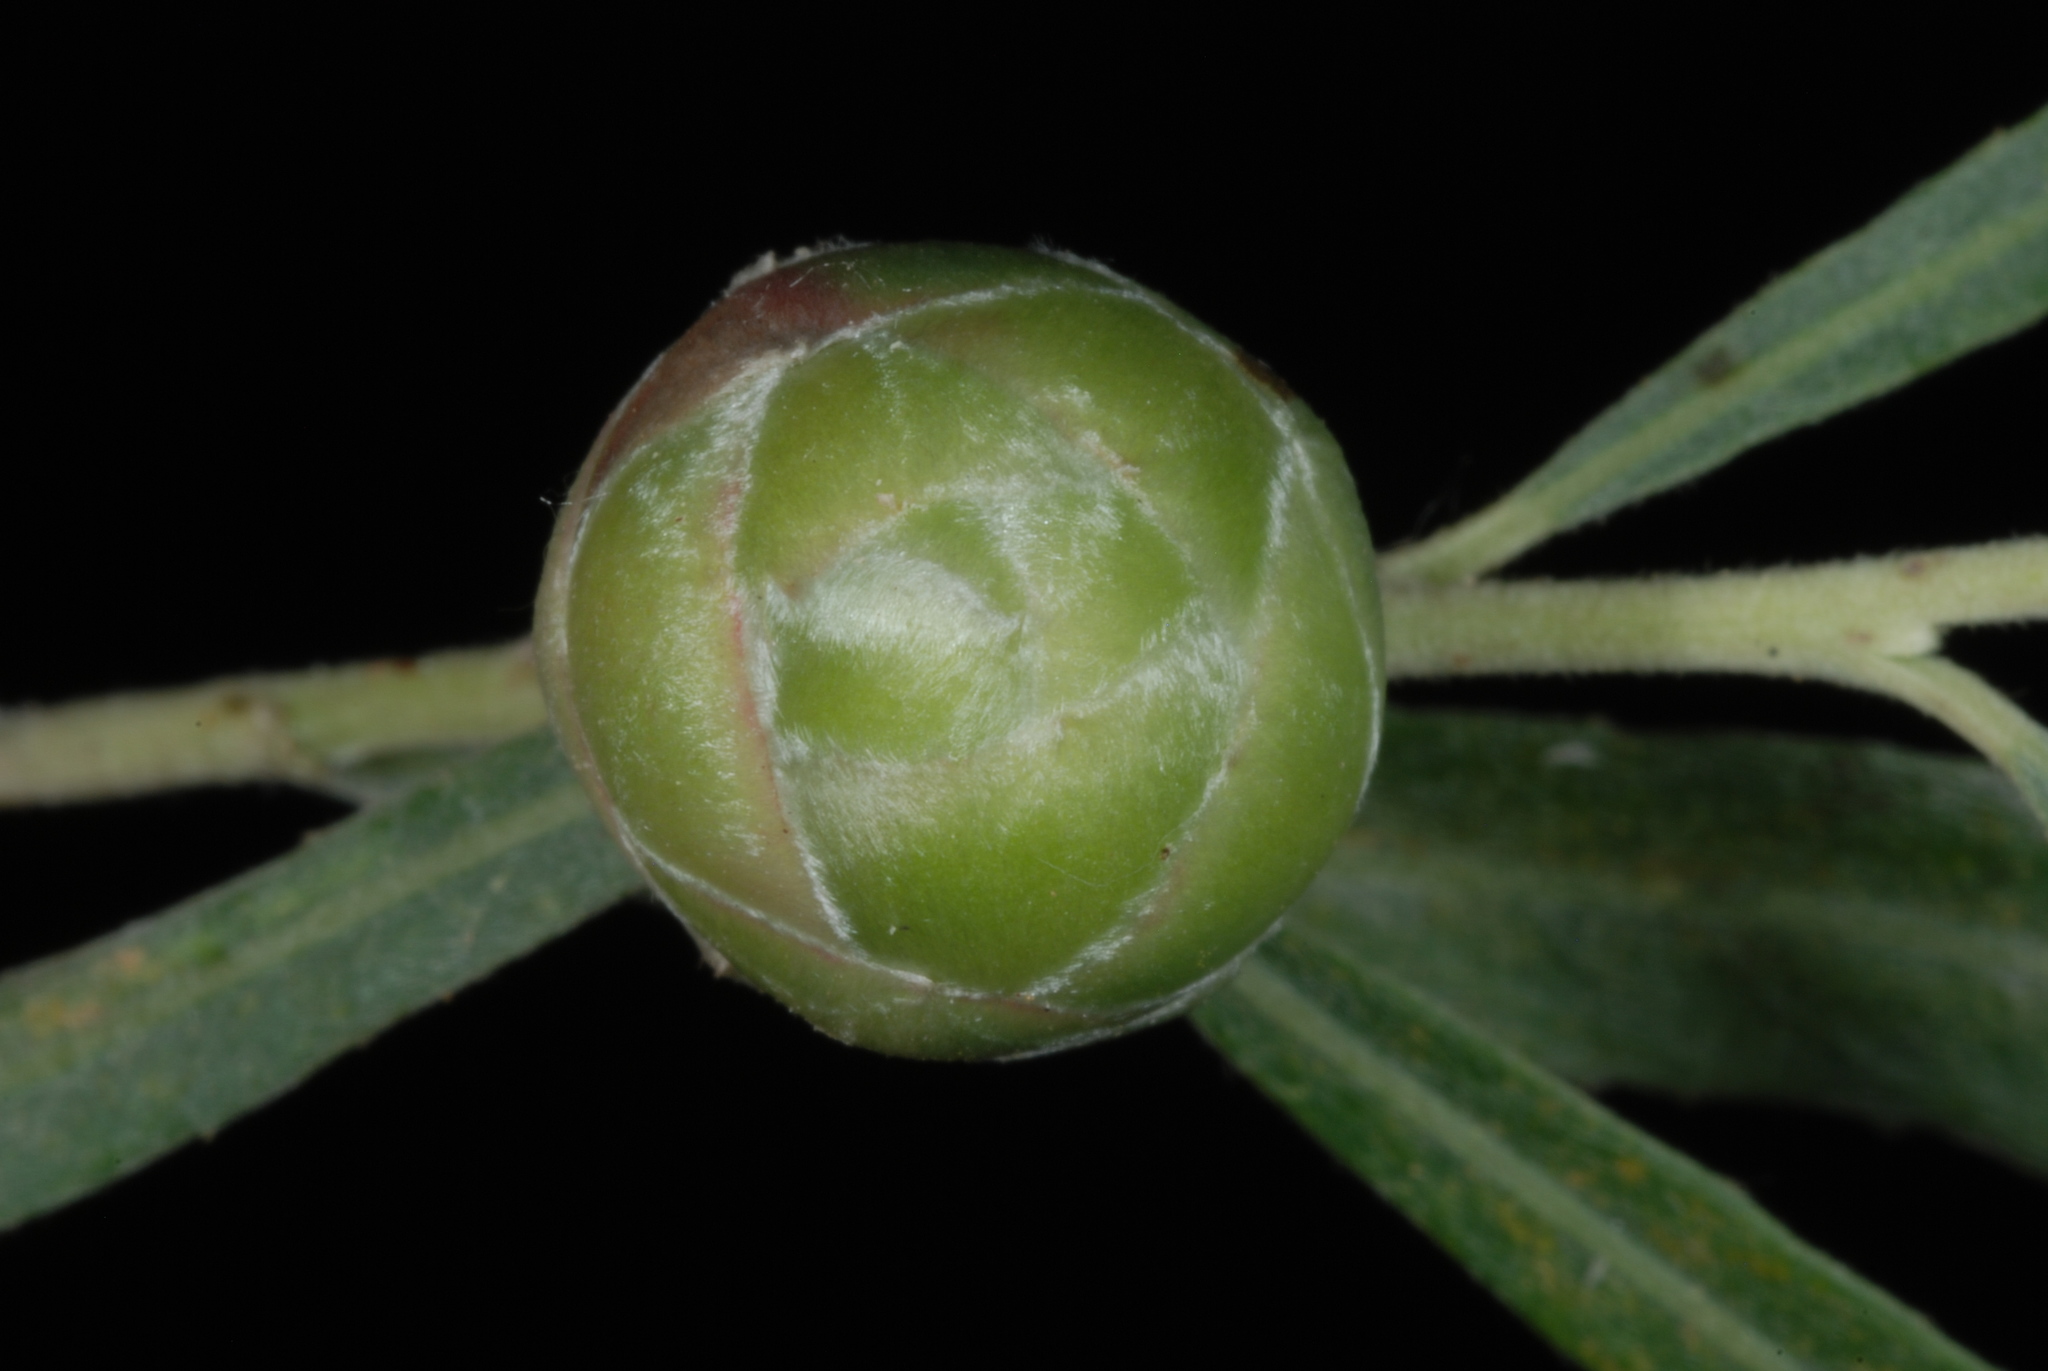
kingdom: Animalia
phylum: Arthropoda
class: Insecta
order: Diptera
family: Cecidomyiidae
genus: Rabdophaga
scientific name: Rabdophaga strobiloides
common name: Willow pinecone gall midge
